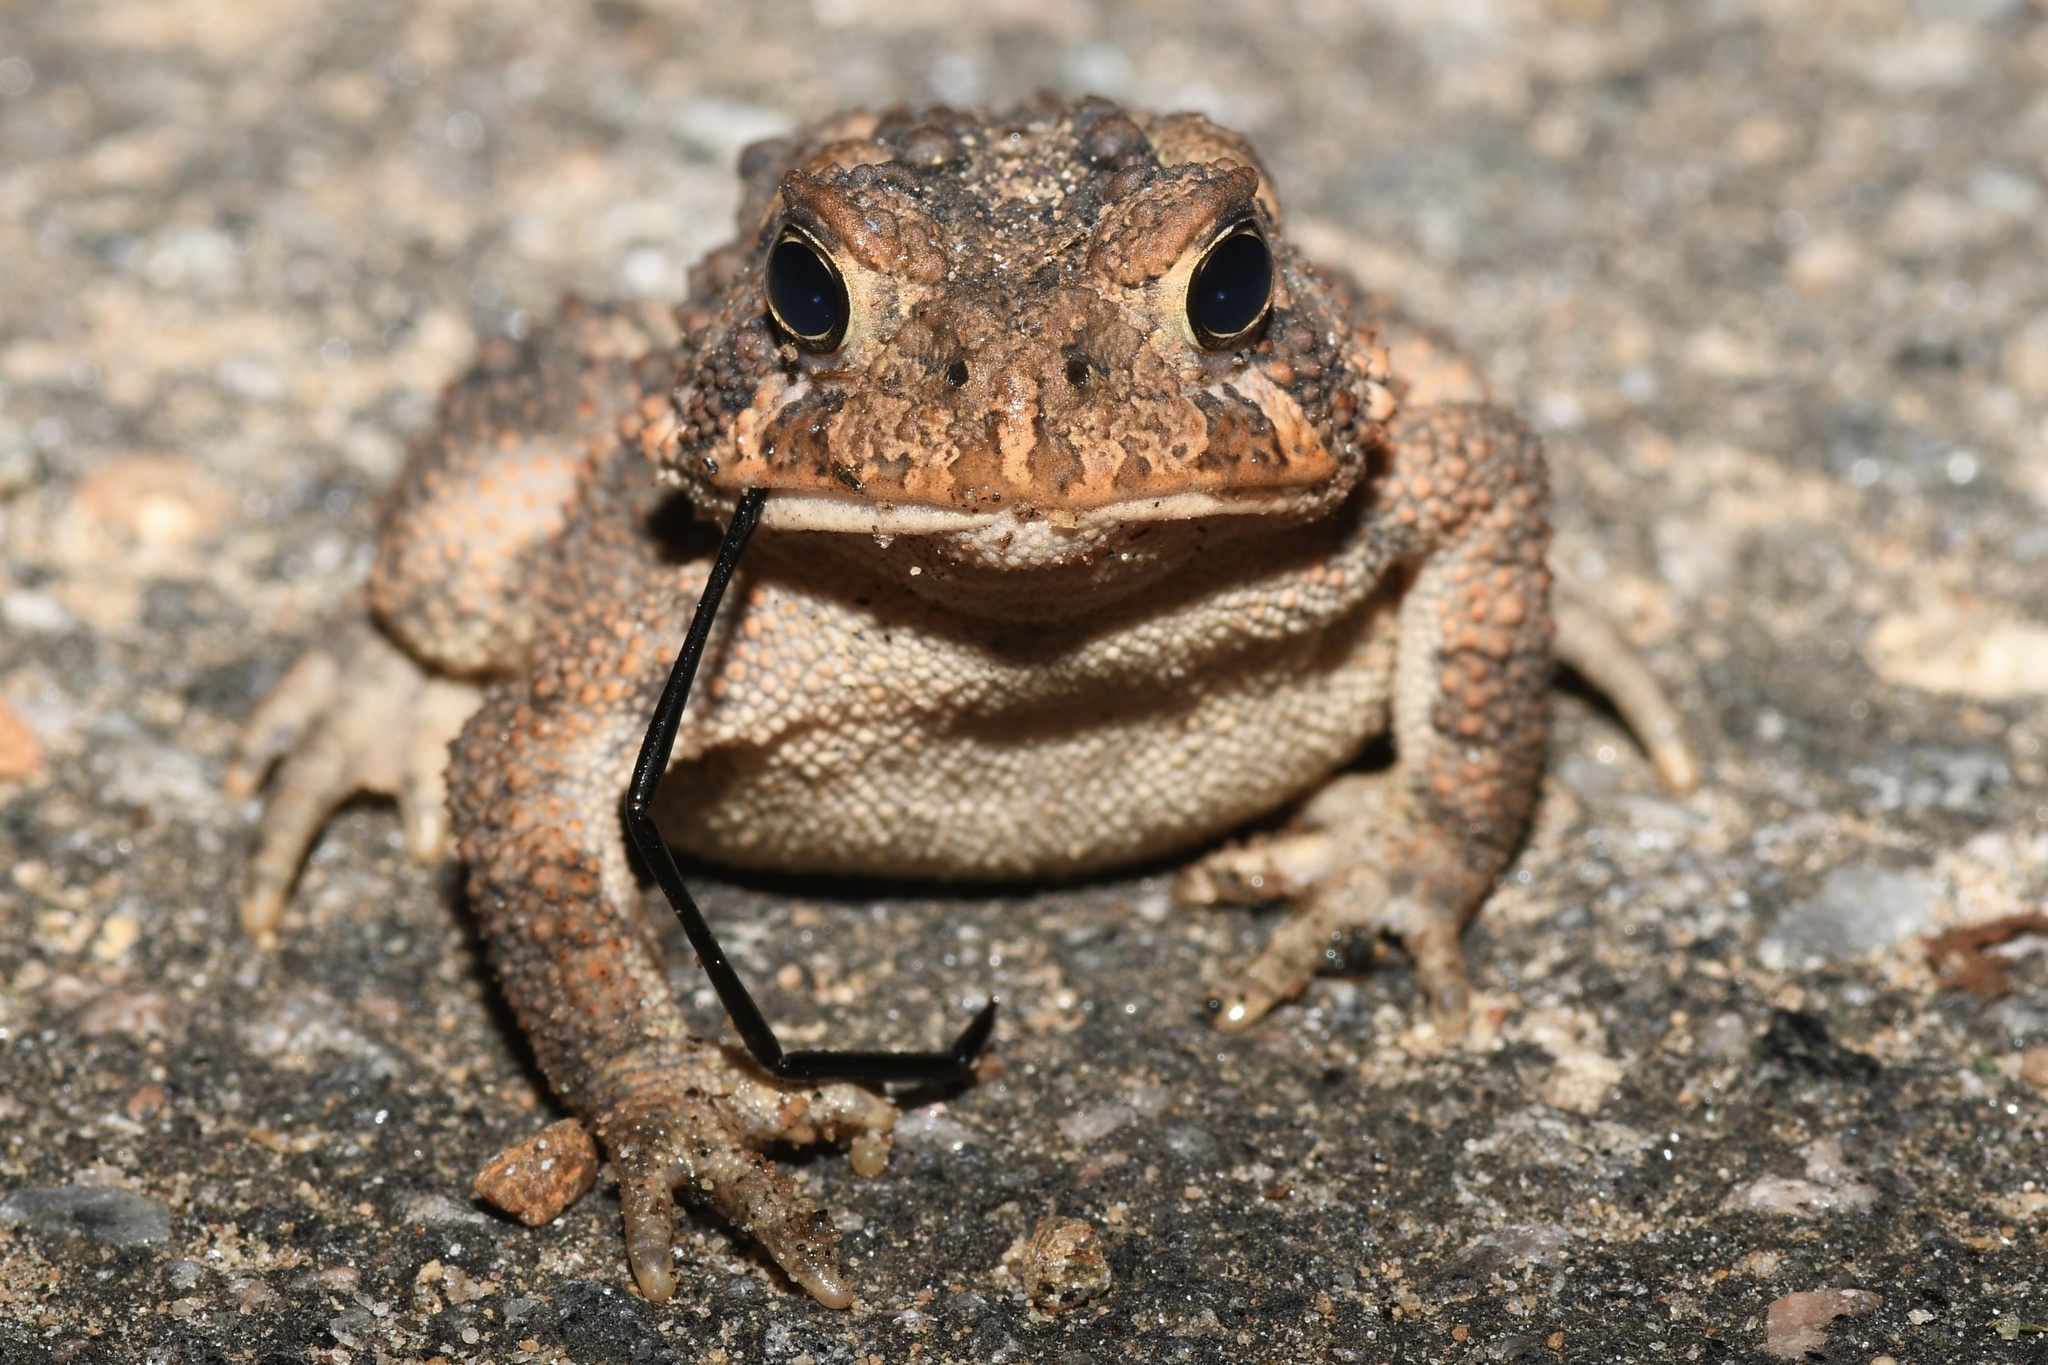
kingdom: Animalia
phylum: Chordata
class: Amphibia
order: Anura
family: Bufonidae
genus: Anaxyrus
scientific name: Anaxyrus americanus
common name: American toad
